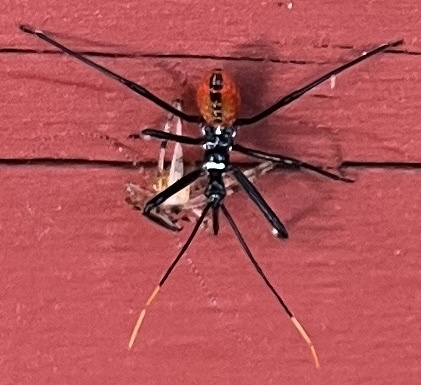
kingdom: Animalia
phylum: Arthropoda
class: Insecta
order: Hemiptera
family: Reduviidae
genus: Arilus
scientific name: Arilus cristatus
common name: North american wheel bug
